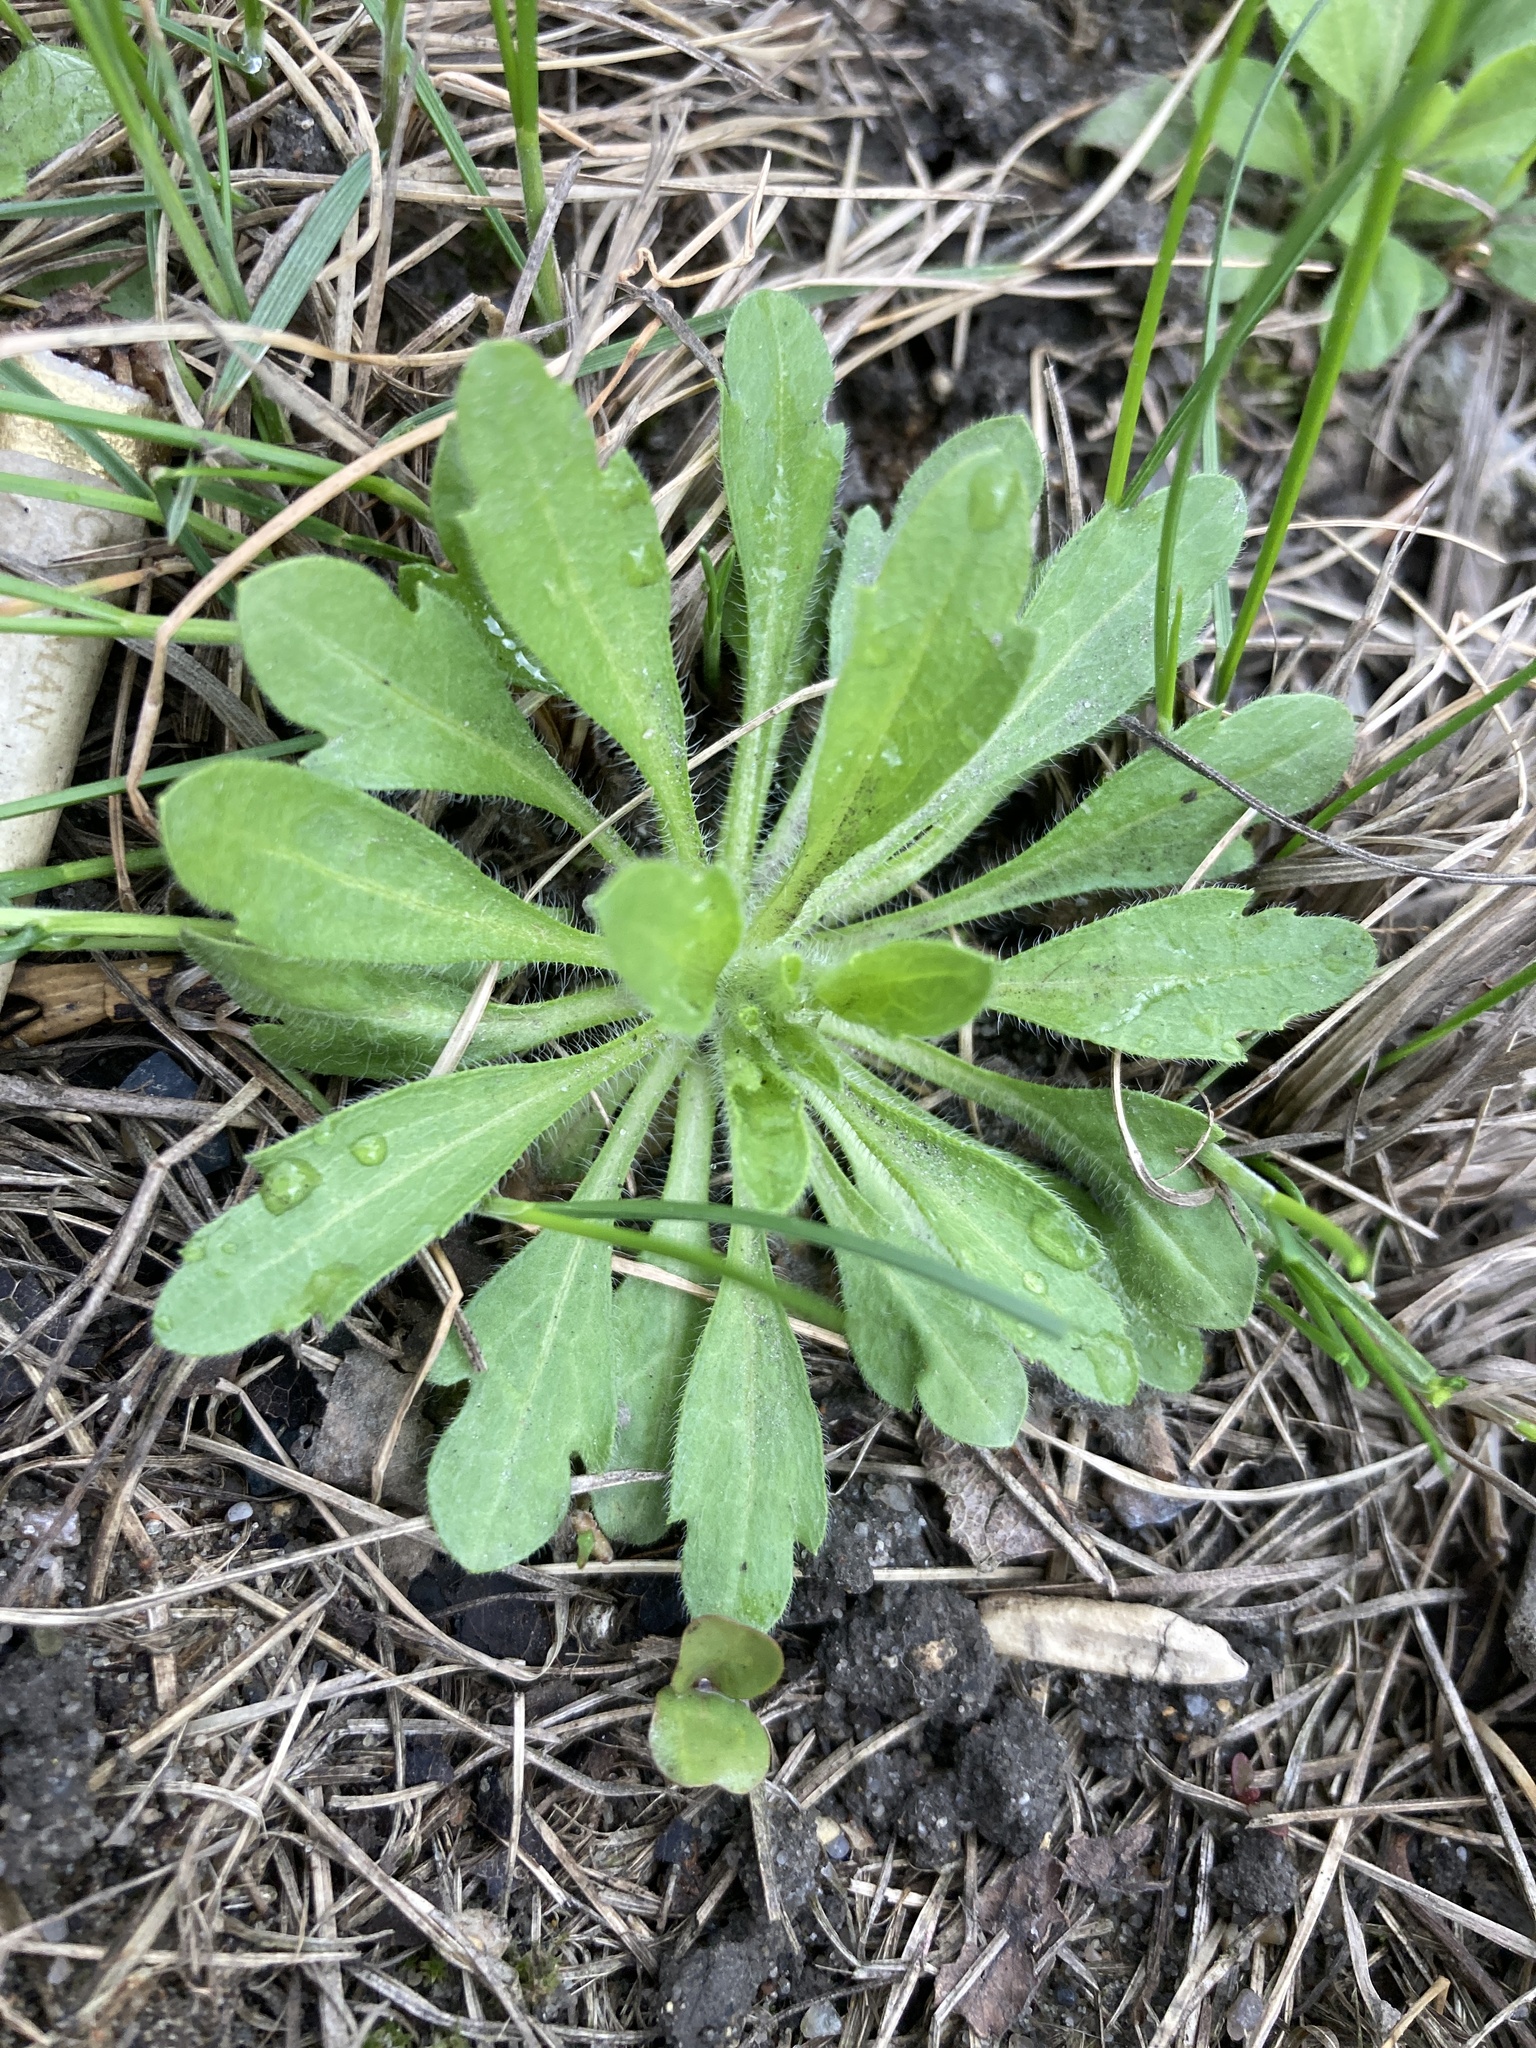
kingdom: Plantae
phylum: Tracheophyta
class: Magnoliopsida
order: Asterales
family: Asteraceae
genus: Erigeron
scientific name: Erigeron canadensis
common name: Canadian fleabane
